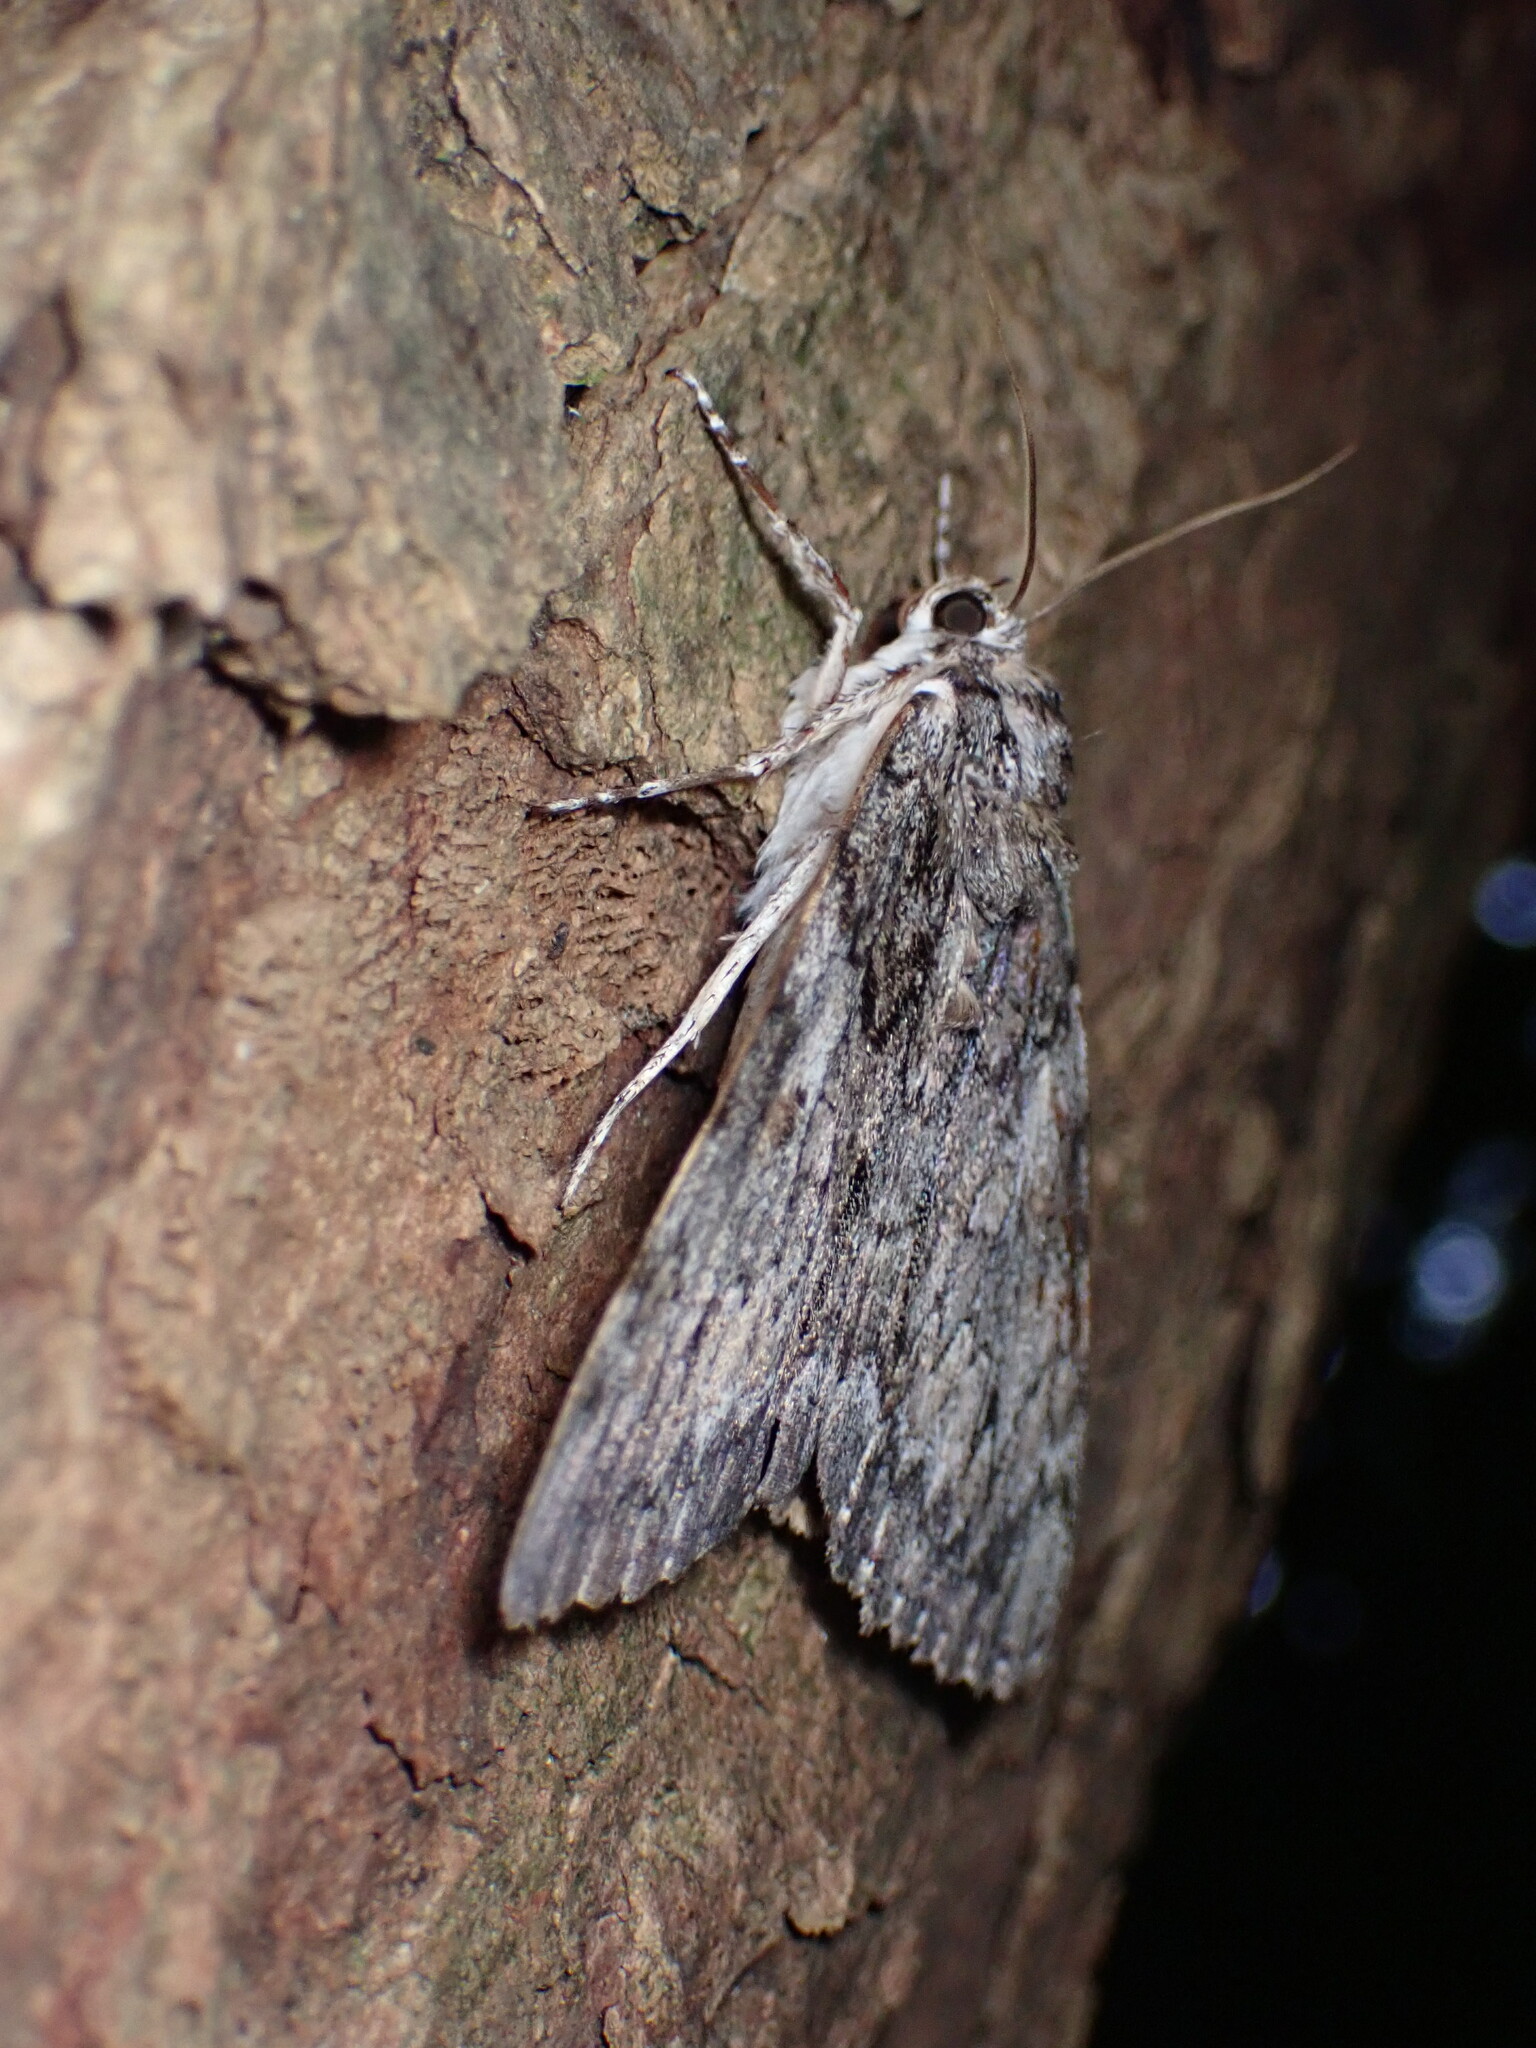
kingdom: Animalia
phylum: Arthropoda
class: Insecta
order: Lepidoptera
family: Erebidae
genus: Catocala
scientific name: Catocala palaeogama
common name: Oldwife underwing
